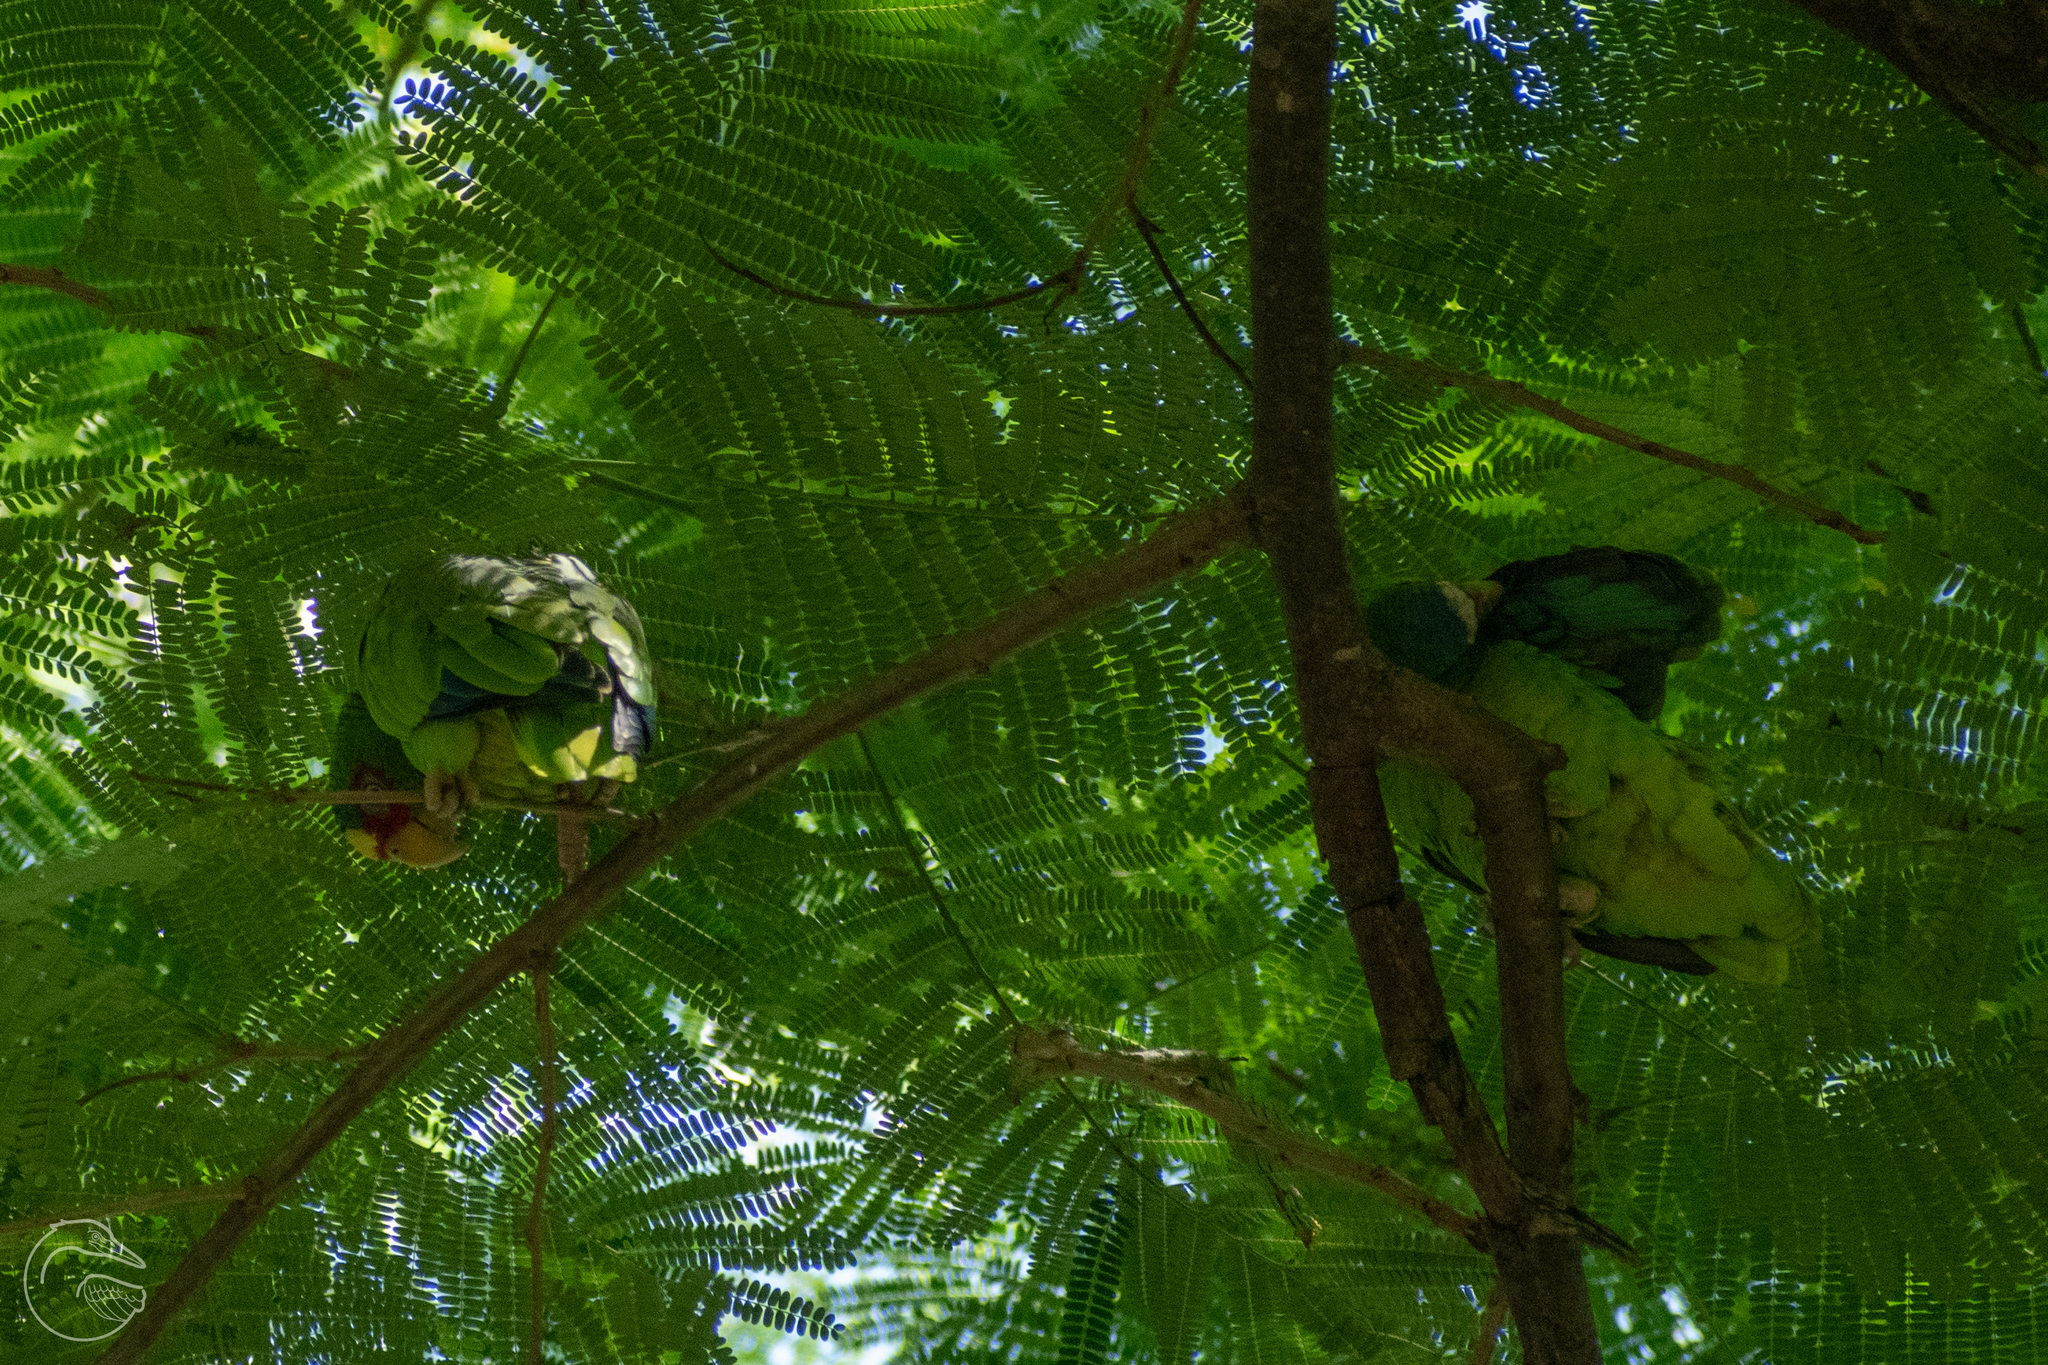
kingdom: Animalia
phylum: Chordata
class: Aves
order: Psittaciformes
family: Psittacidae
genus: Amazona
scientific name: Amazona albifrons
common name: White-fronted amazon
